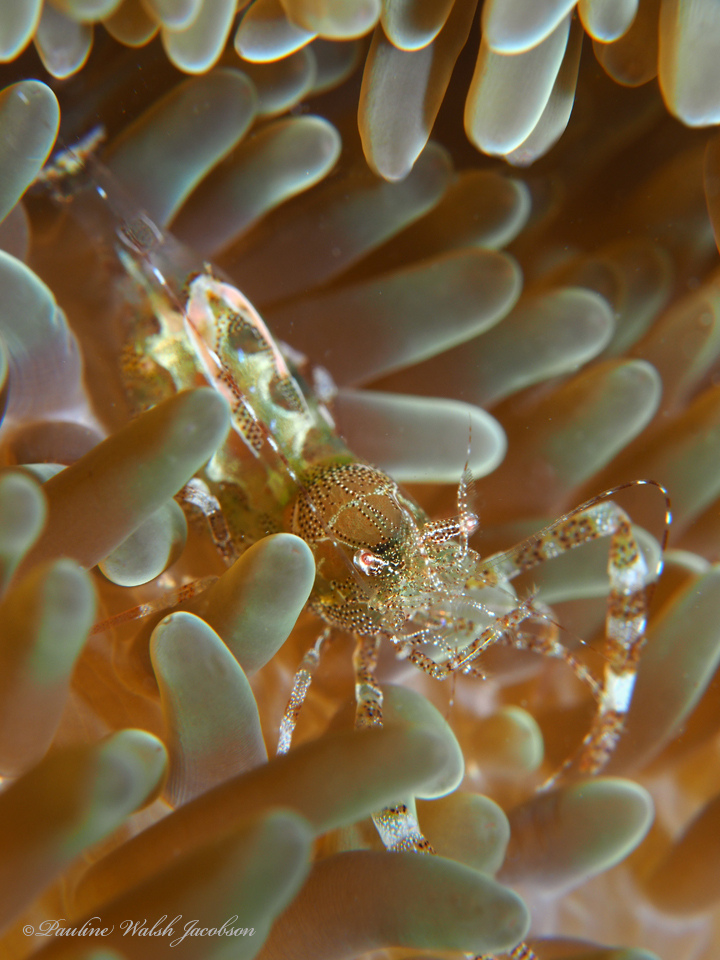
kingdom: Animalia
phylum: Arthropoda
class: Malacostraca
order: Decapoda
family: Palaemonidae
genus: Periclimenes
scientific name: Periclimenes rathbunae
